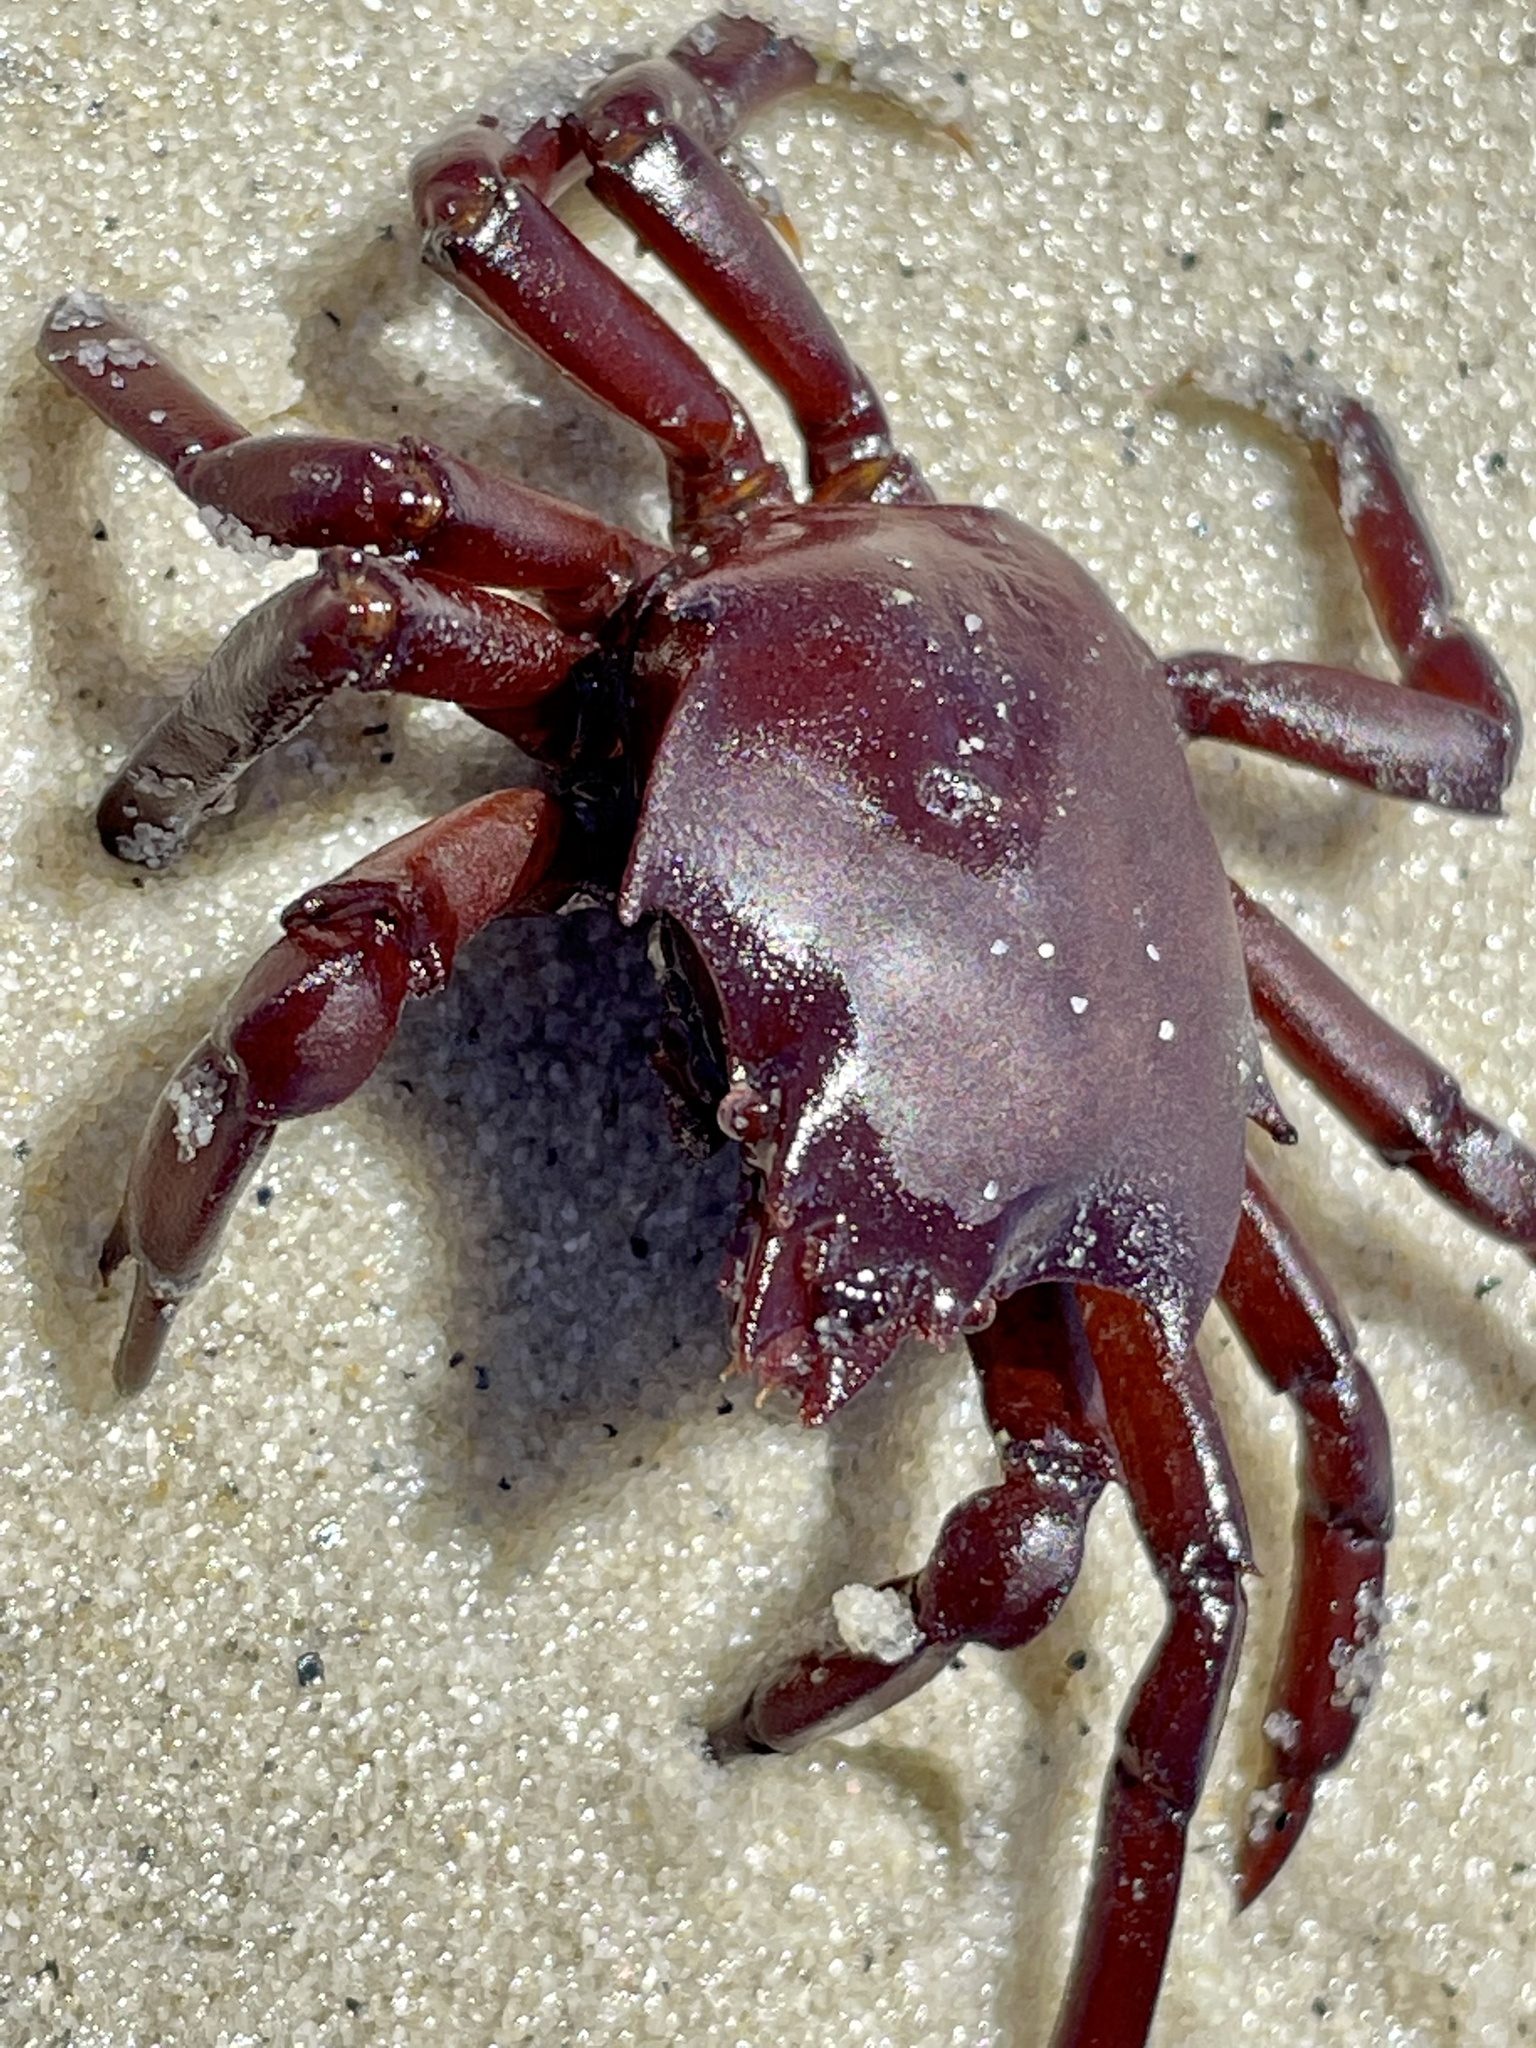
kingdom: Animalia
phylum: Arthropoda
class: Malacostraca
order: Decapoda
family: Epialtidae
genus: Pugettia
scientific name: Pugettia producta
